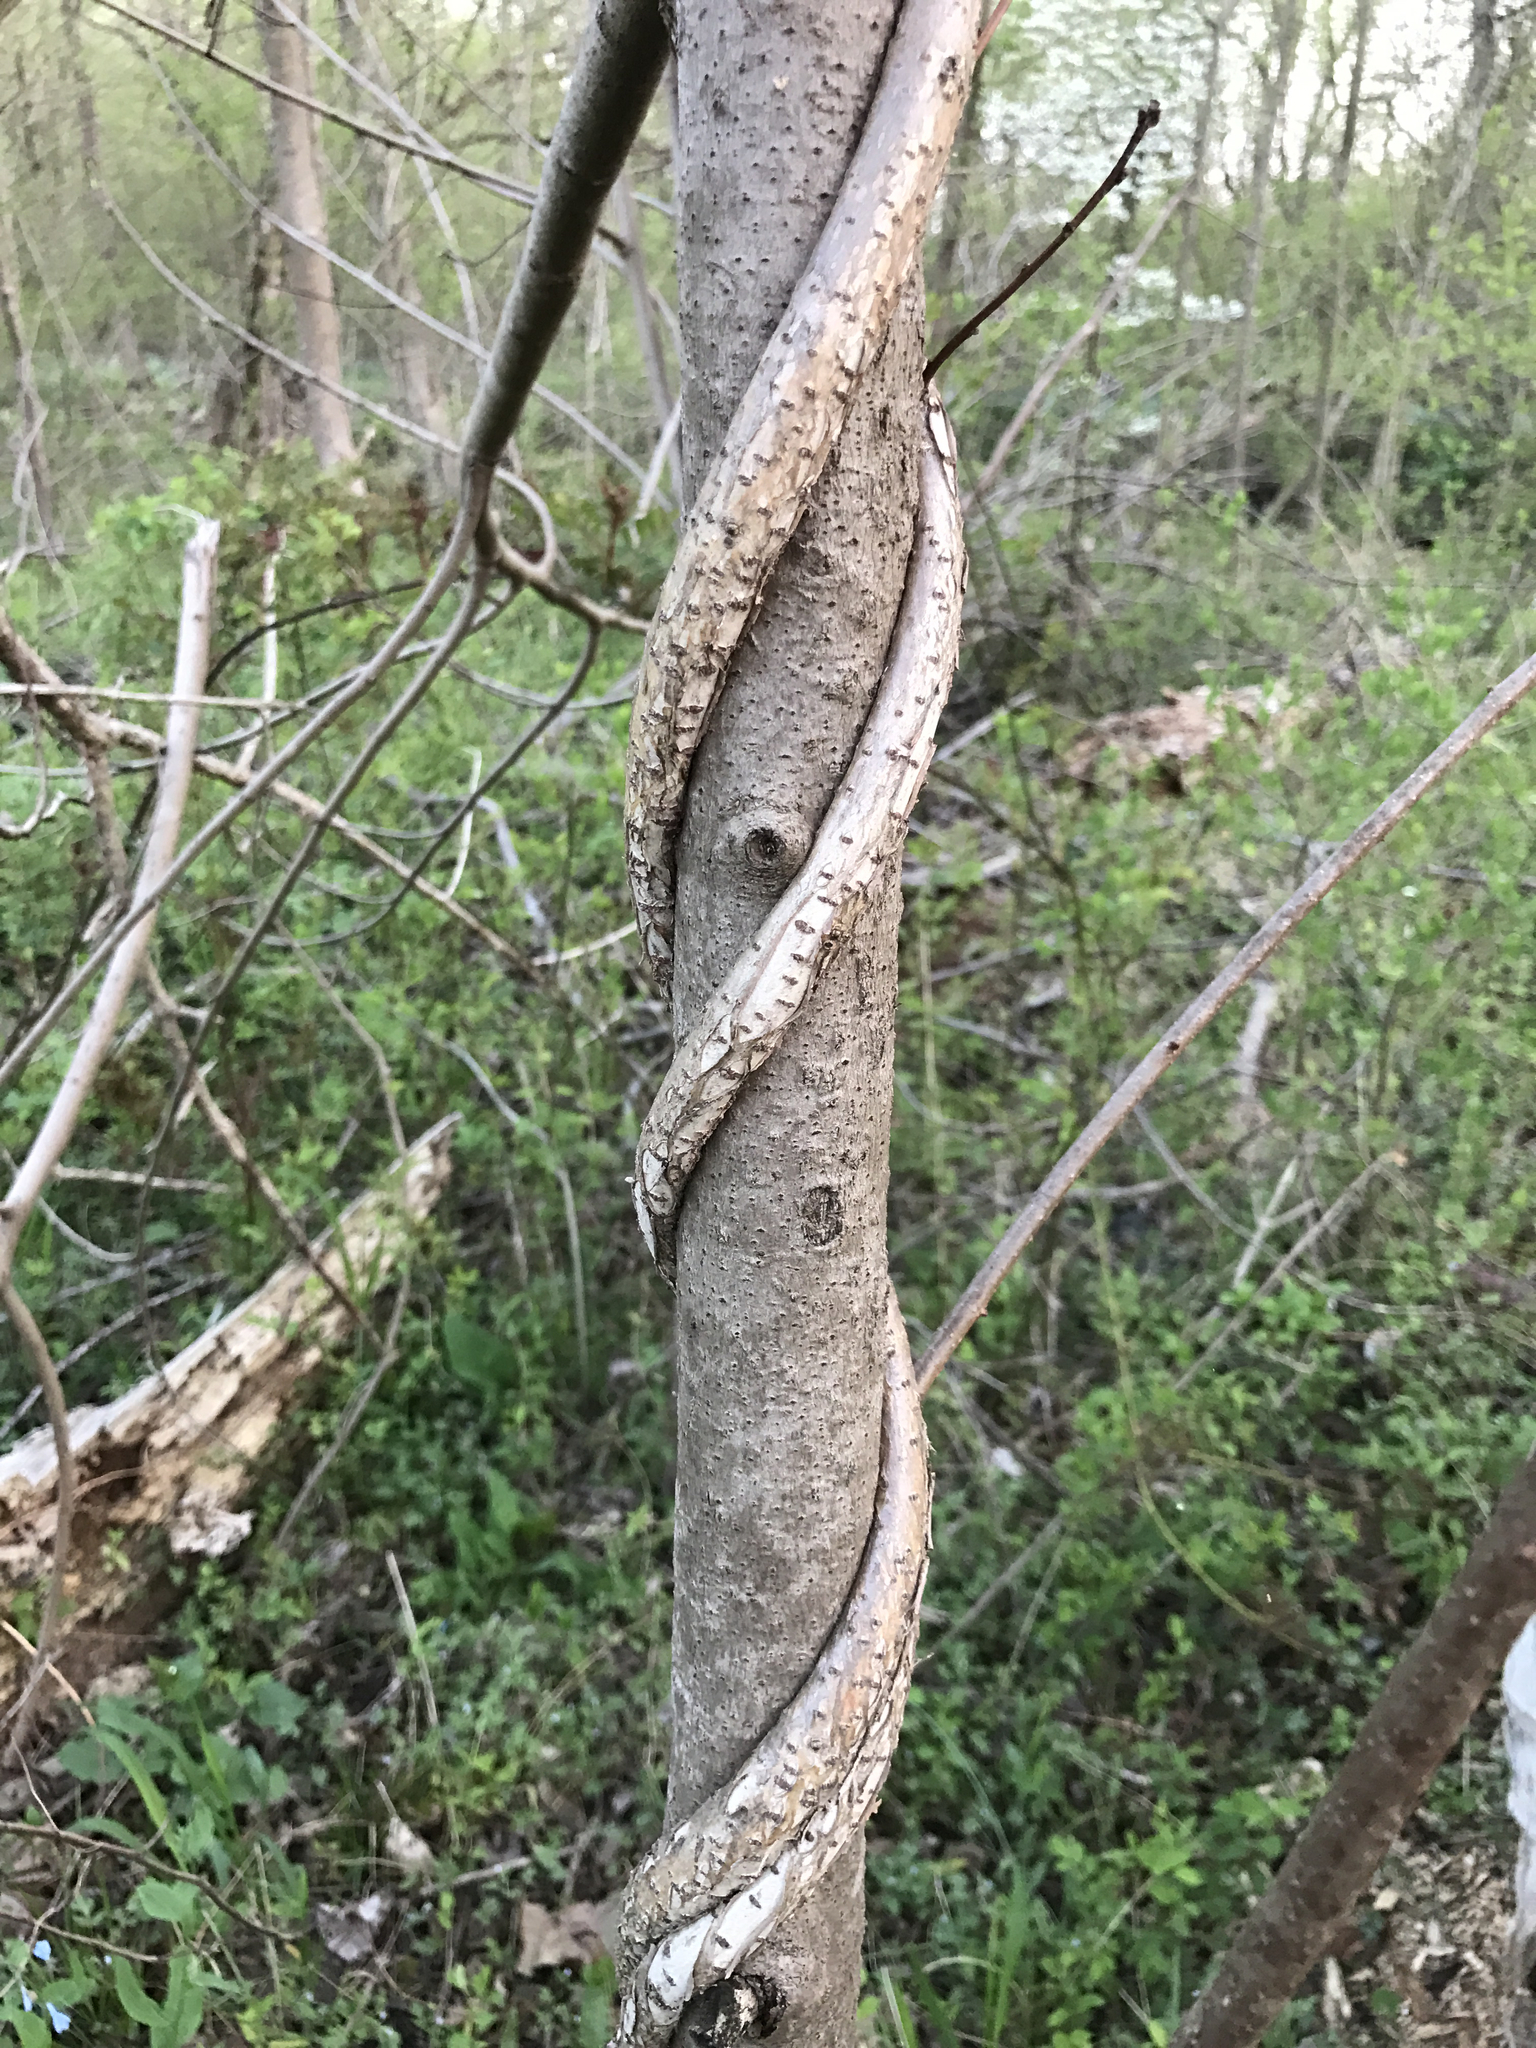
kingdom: Plantae
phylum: Tracheophyta
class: Magnoliopsida
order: Celastrales
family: Celastraceae
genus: Celastrus
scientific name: Celastrus orbiculatus
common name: Oriental bittersweet
